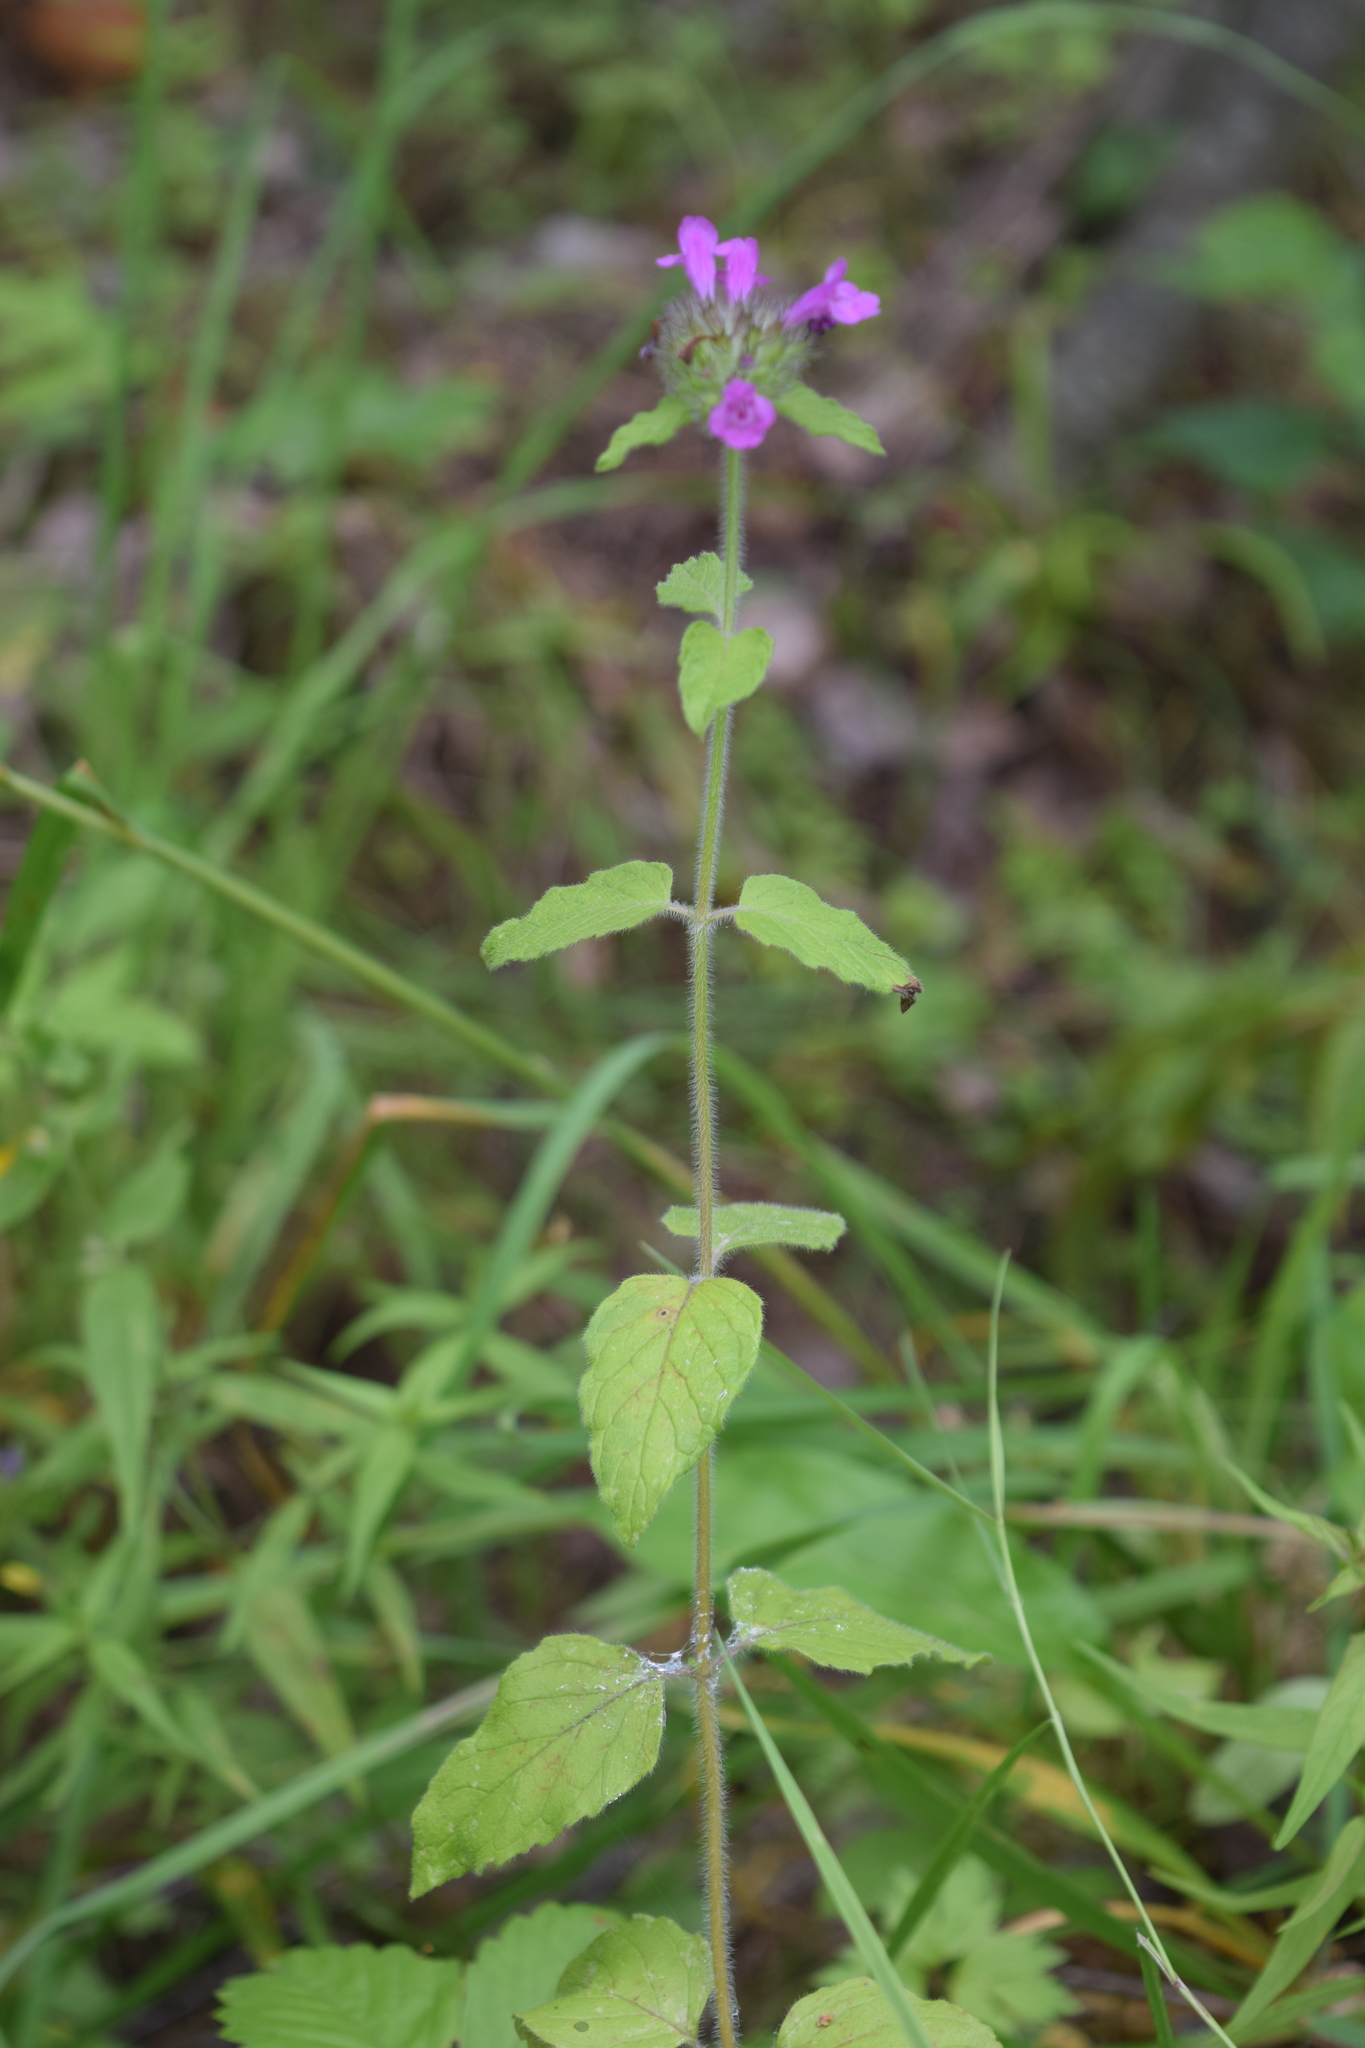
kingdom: Plantae
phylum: Tracheophyta
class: Magnoliopsida
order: Lamiales
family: Lamiaceae
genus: Clinopodium
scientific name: Clinopodium vulgare
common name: Wild basil
